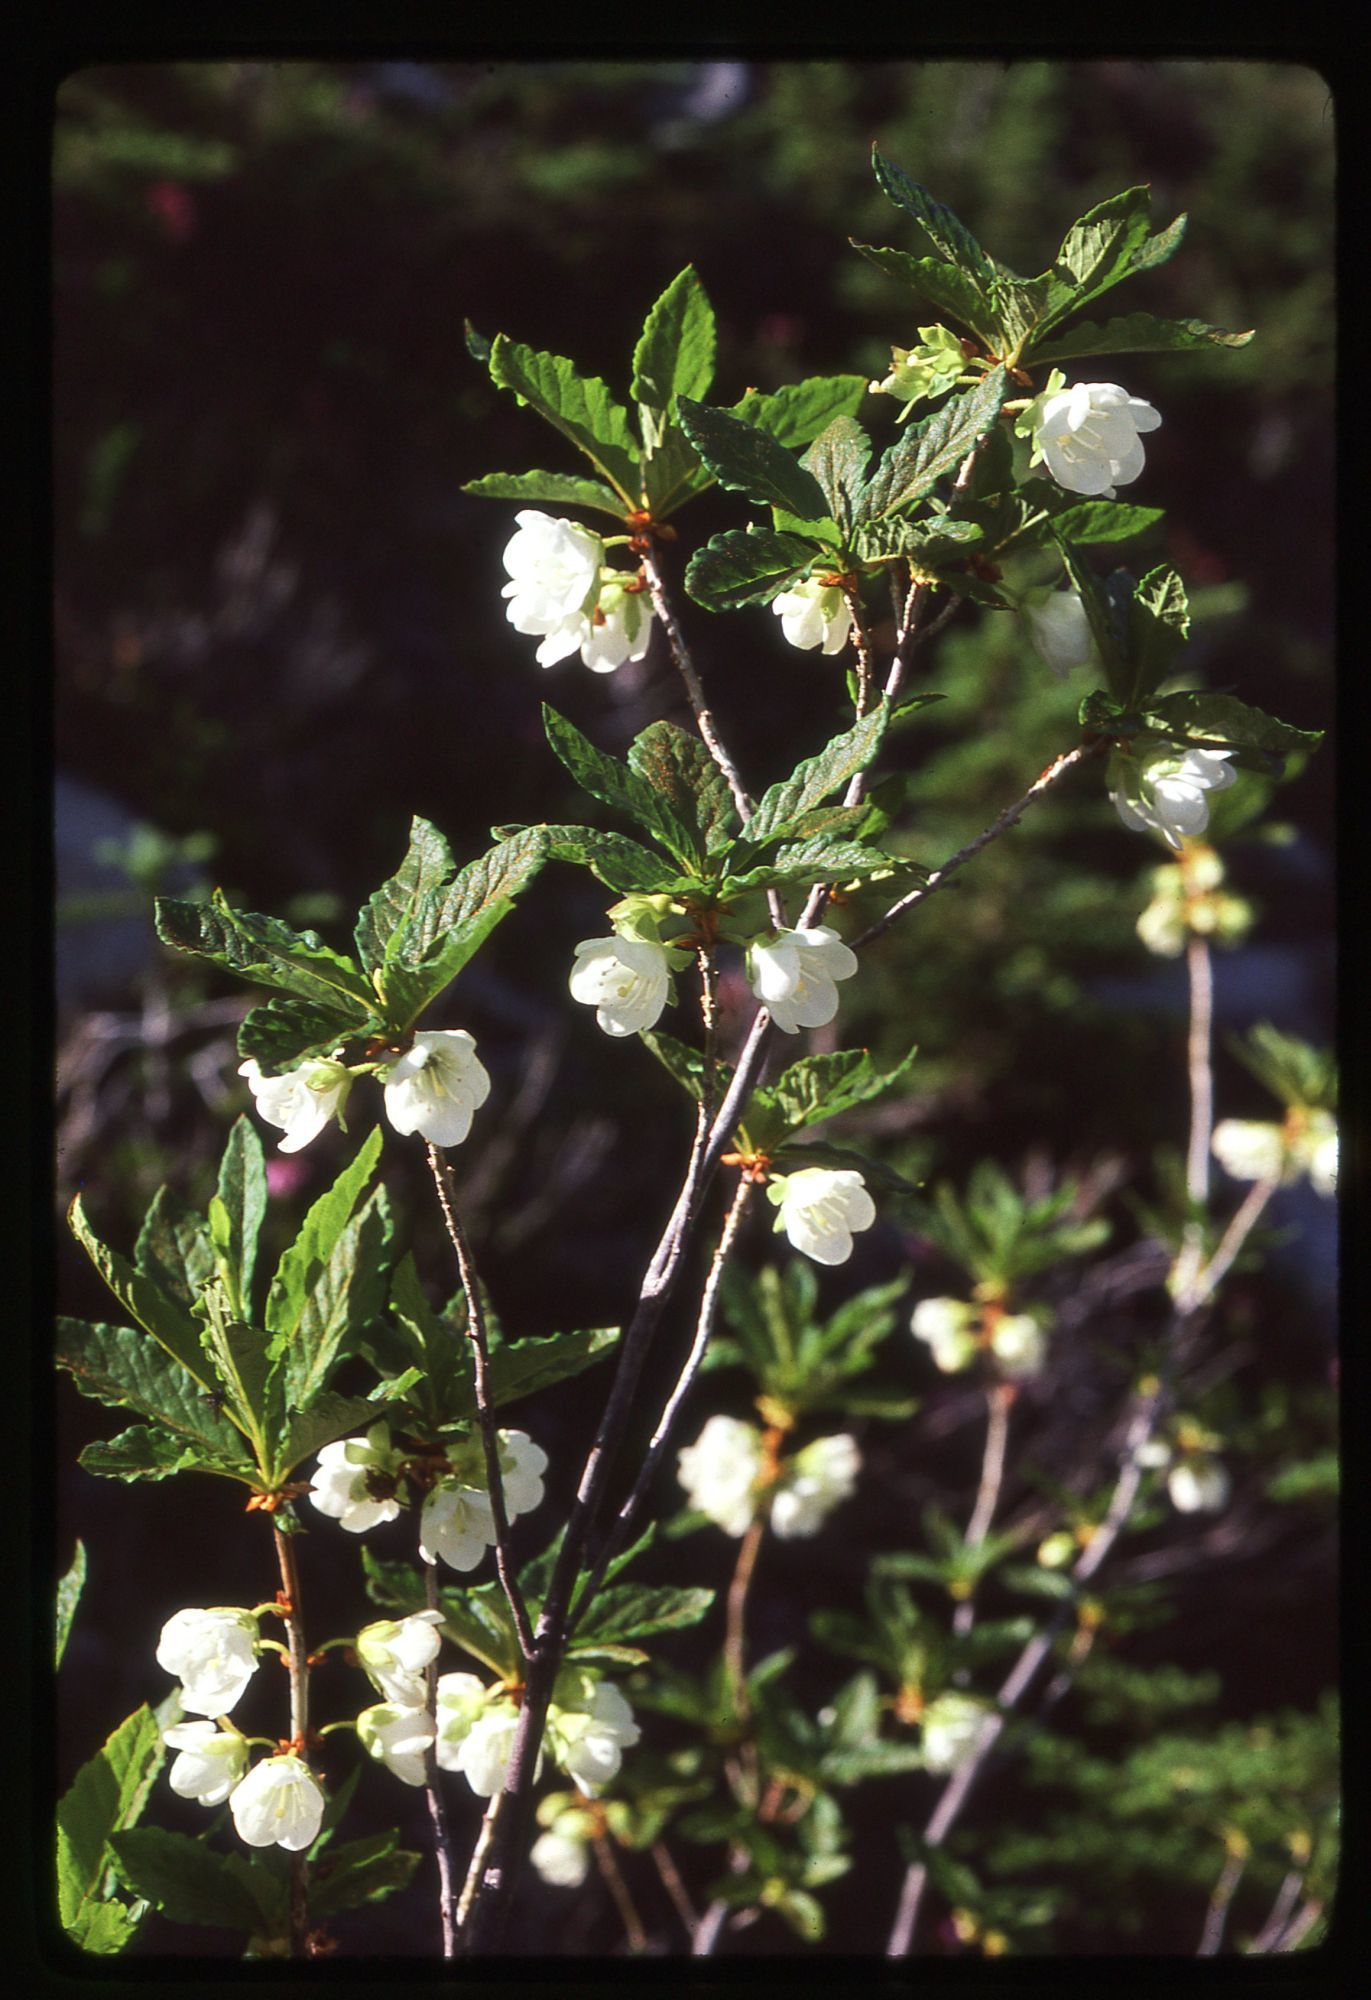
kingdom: Plantae
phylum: Tracheophyta
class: Magnoliopsida
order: Ericales
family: Ericaceae
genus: Rhododendron
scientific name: Rhododendron albiflorum
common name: White rhododendron
